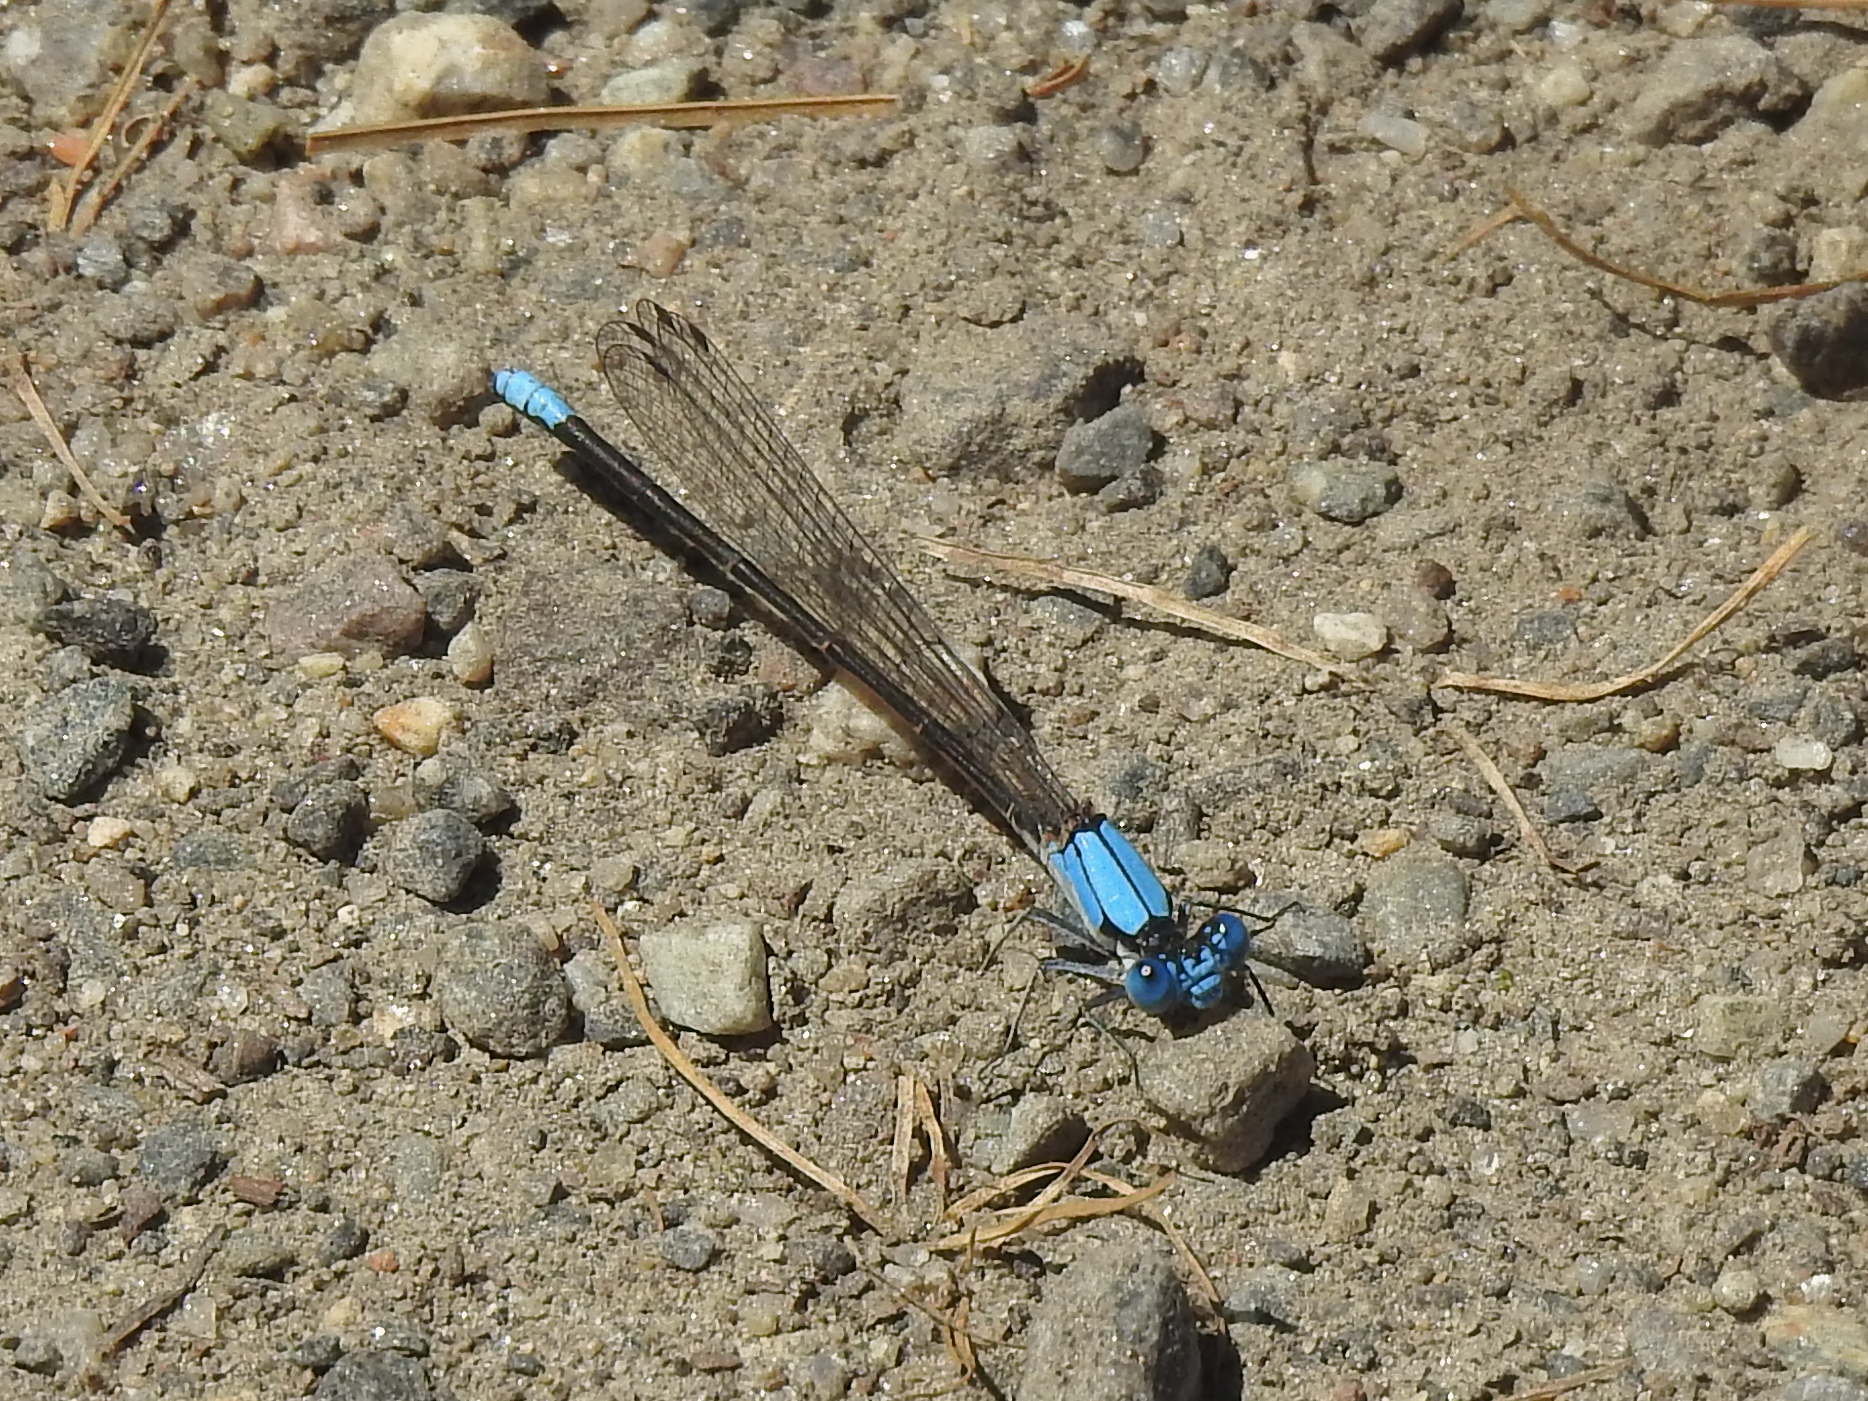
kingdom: Animalia
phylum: Arthropoda
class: Insecta
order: Odonata
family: Coenagrionidae
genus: Argia
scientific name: Argia apicalis
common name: Blue-fronted dancer
